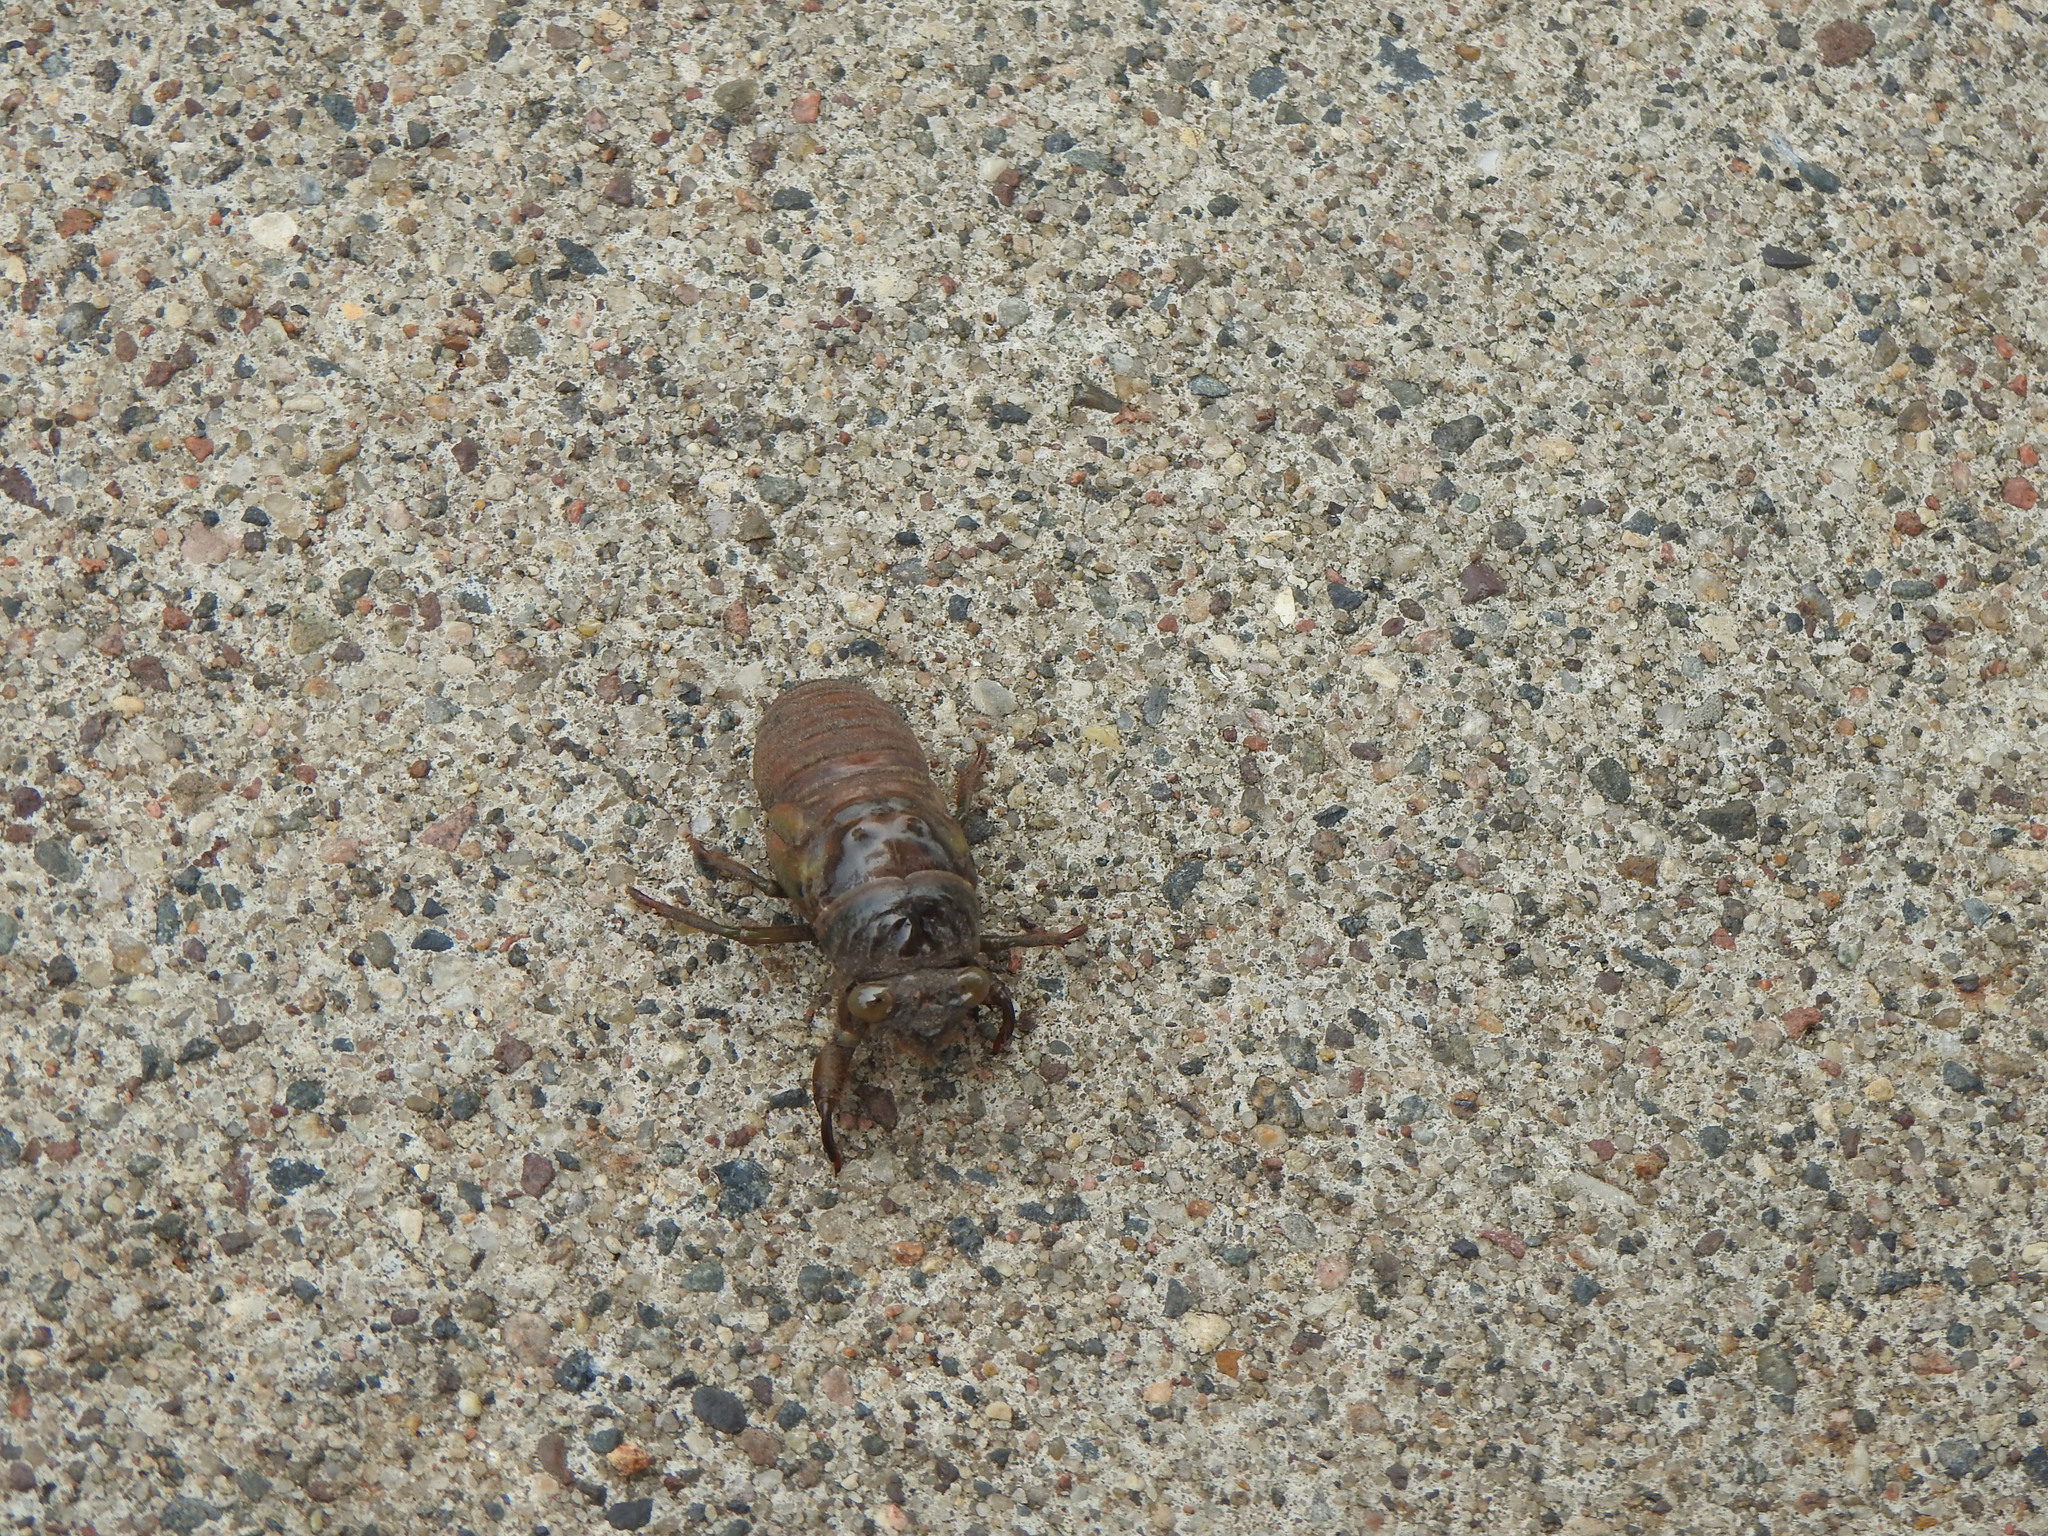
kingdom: Animalia
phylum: Arthropoda
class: Insecta
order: Hemiptera
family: Cicadidae
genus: Neotibicen
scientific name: Neotibicen canicularis
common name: God-day cicada
